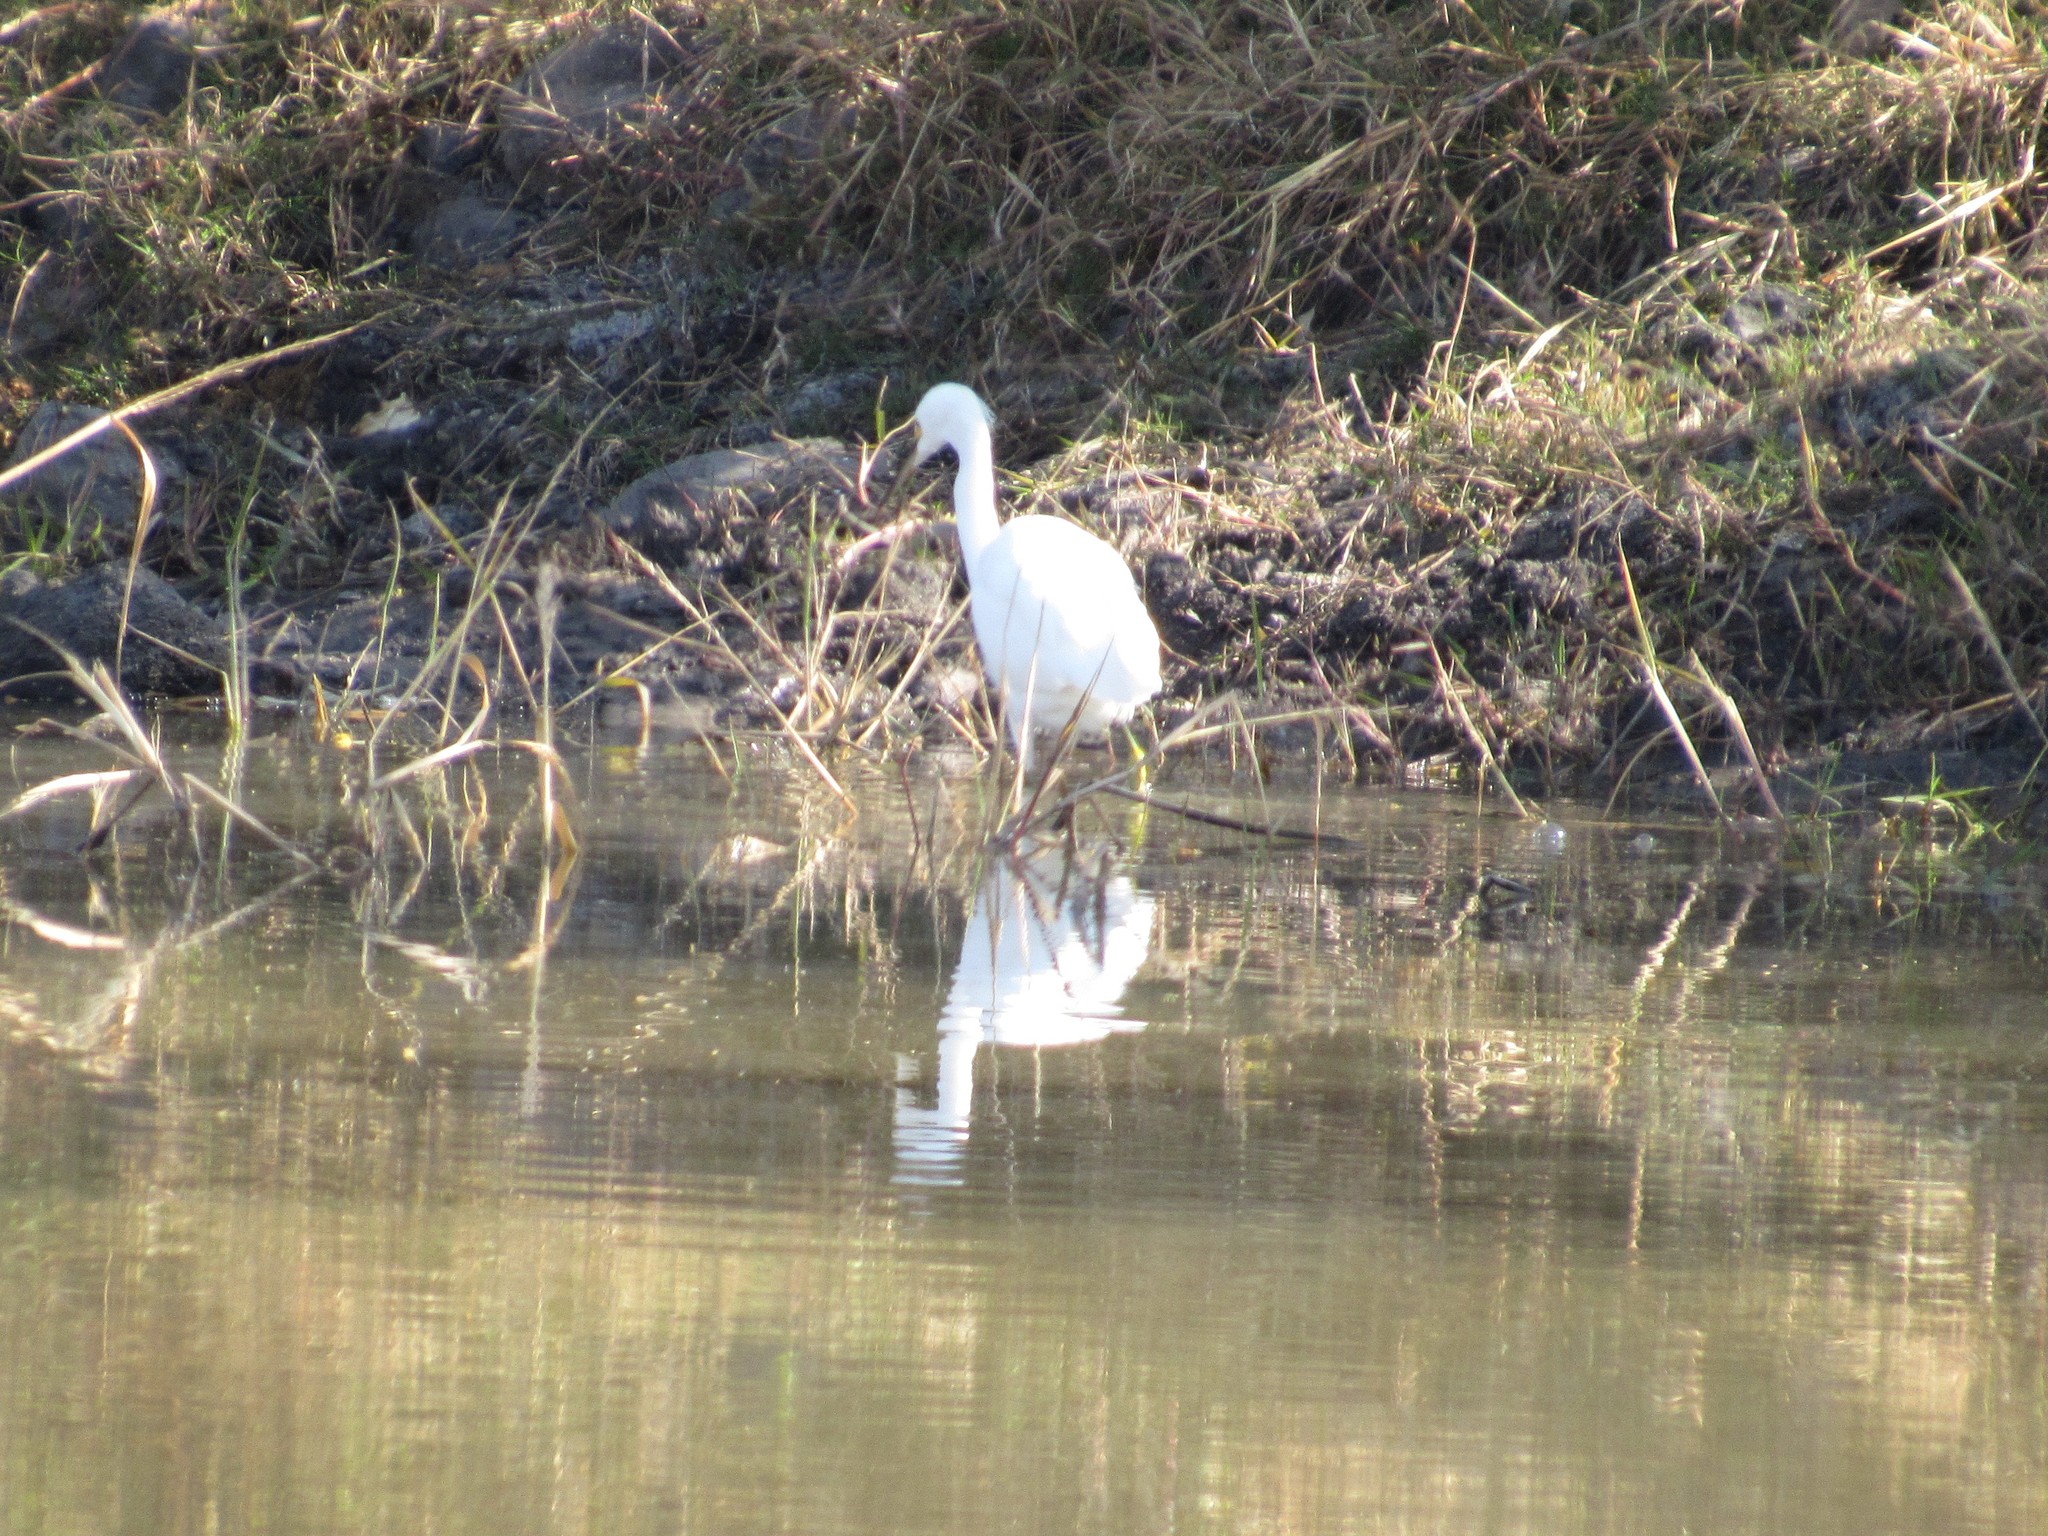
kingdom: Animalia
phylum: Chordata
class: Aves
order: Pelecaniformes
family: Ardeidae
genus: Egretta
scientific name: Egretta thula
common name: Snowy egret
